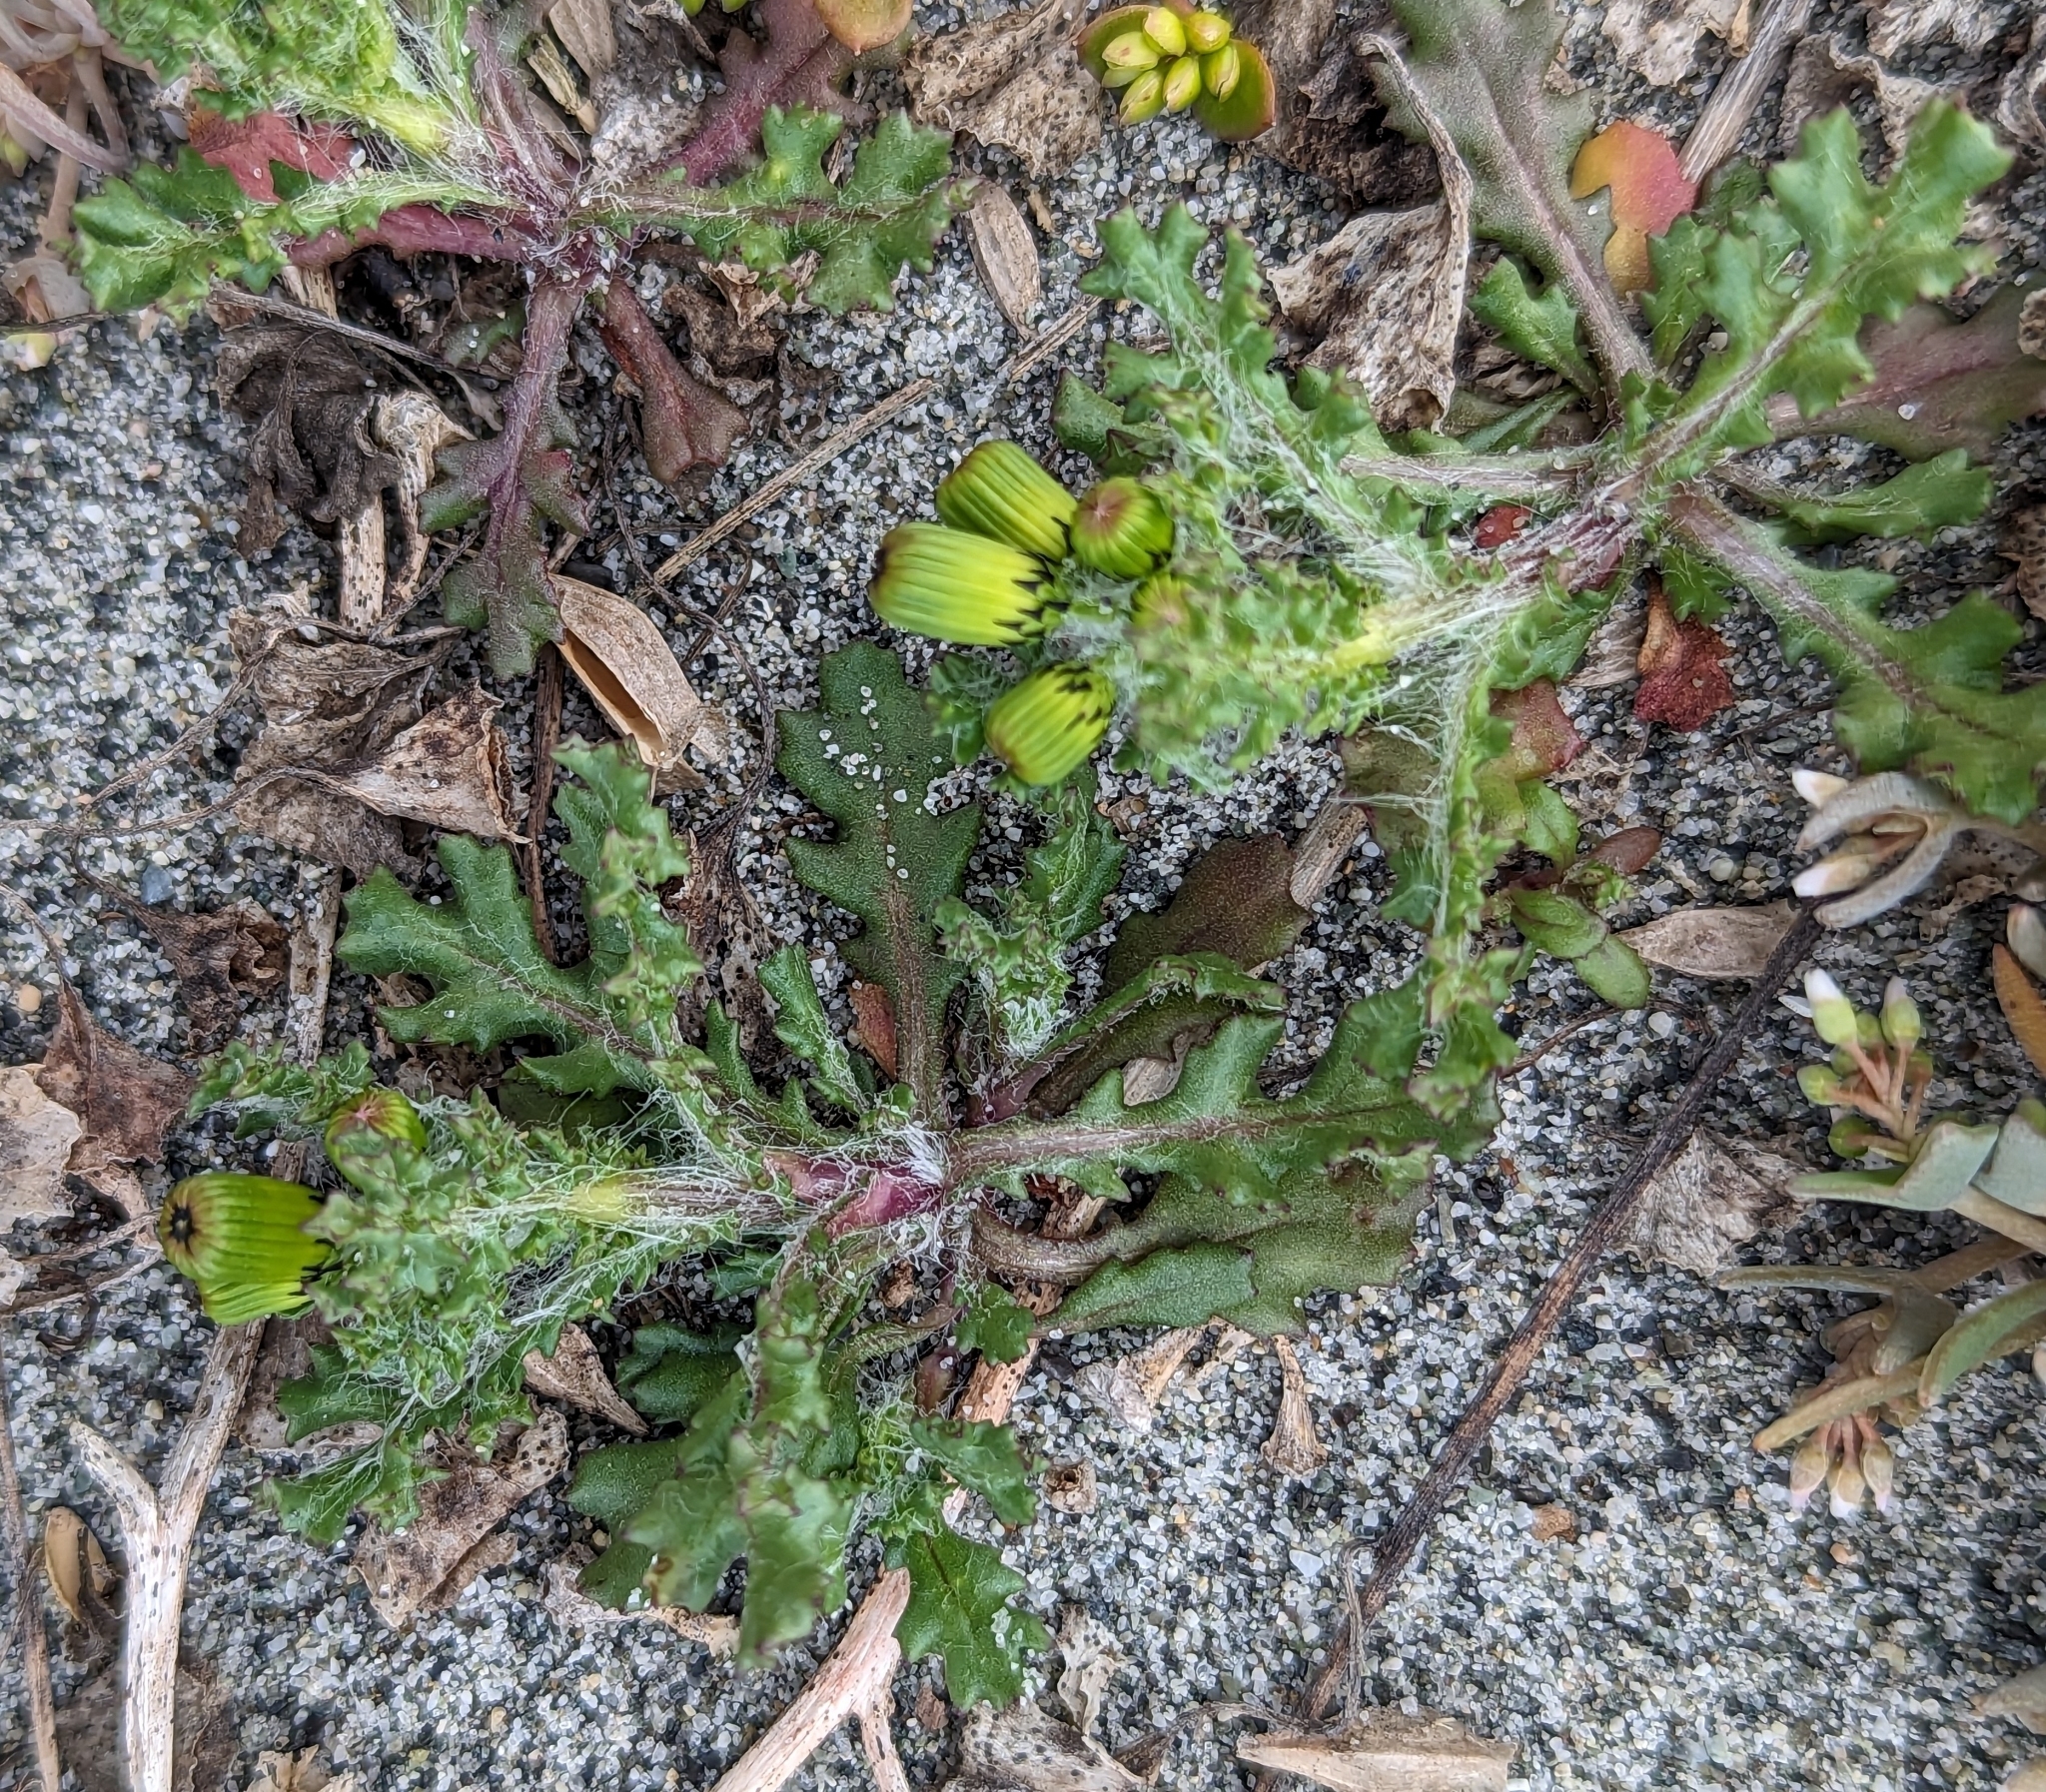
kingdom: Plantae
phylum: Tracheophyta
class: Magnoliopsida
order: Asterales
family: Asteraceae
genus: Senecio
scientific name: Senecio vulgaris
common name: Old-man-in-the-spring
